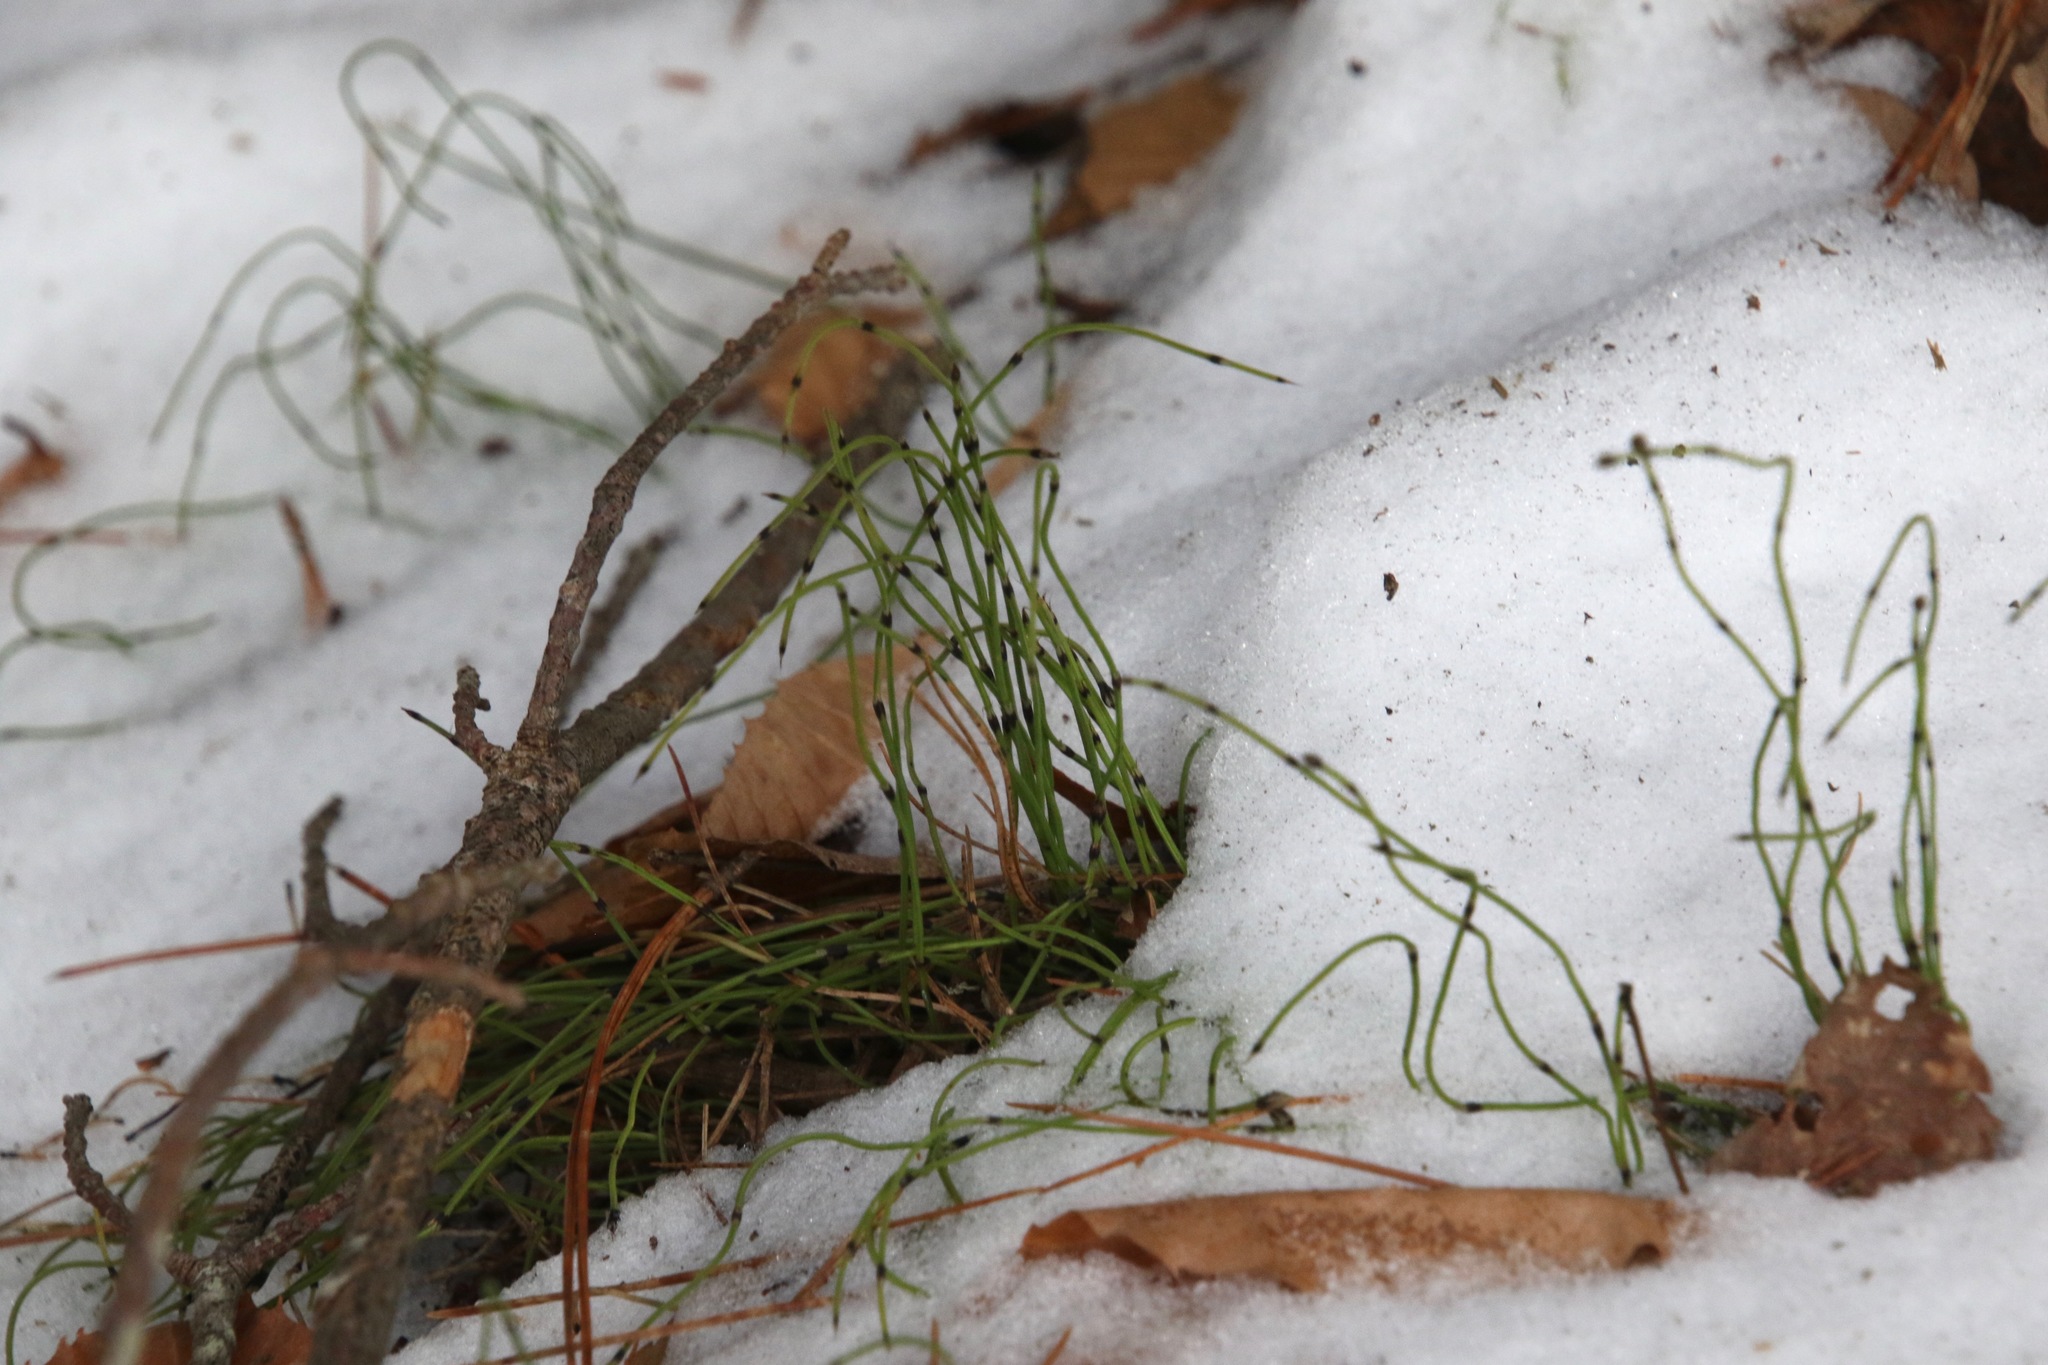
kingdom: Plantae
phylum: Tracheophyta
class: Polypodiopsida
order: Equisetales
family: Equisetaceae
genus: Equisetum
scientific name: Equisetum scirpoides
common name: Delicate horsetail
